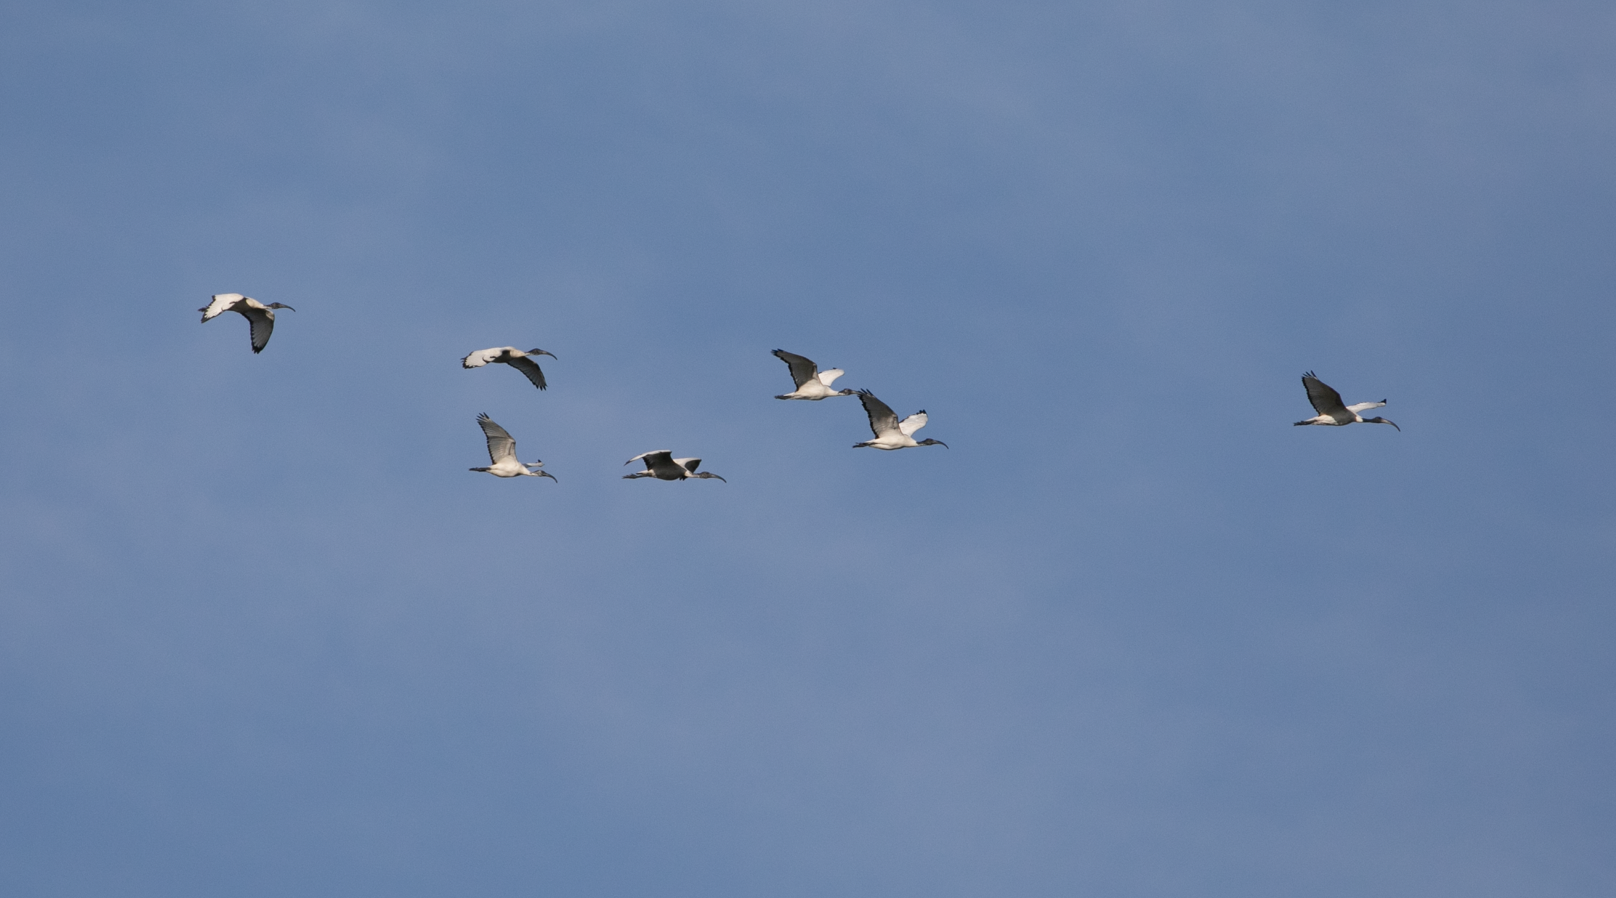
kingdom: Animalia
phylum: Chordata
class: Aves
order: Pelecaniformes
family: Threskiornithidae
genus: Threskiornis
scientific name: Threskiornis aethiopicus
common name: Sacred ibis
